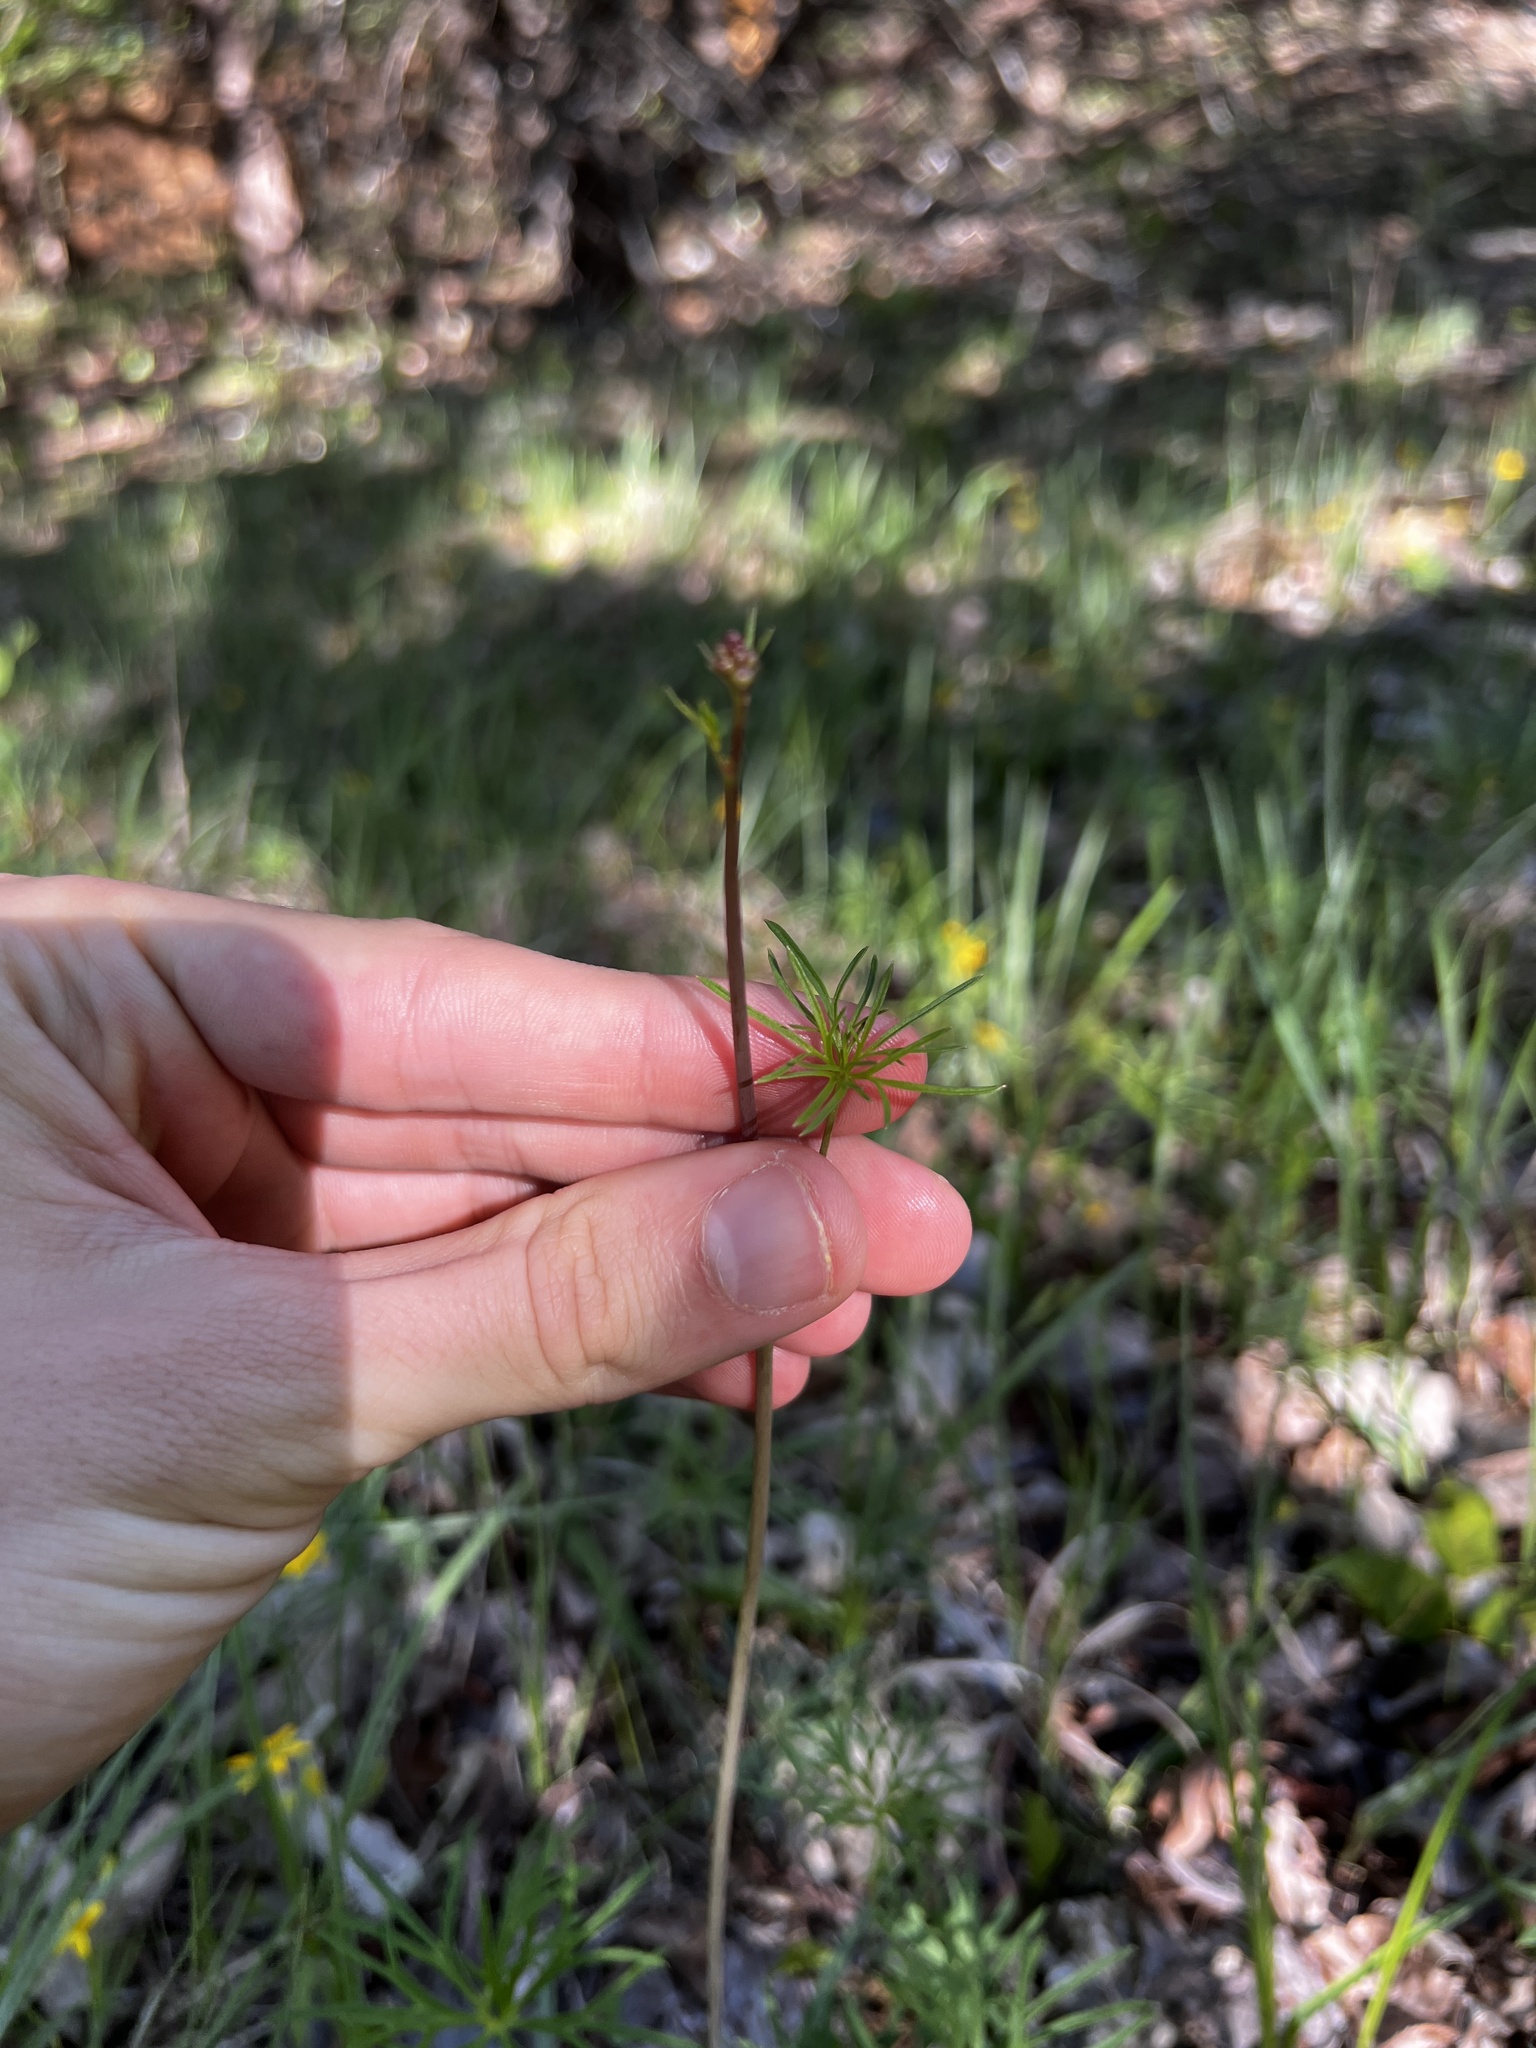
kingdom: Plantae
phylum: Tracheophyta
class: Magnoliopsida
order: Ranunculales
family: Ranunculaceae
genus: Delphinium
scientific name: Delphinium treleasei
